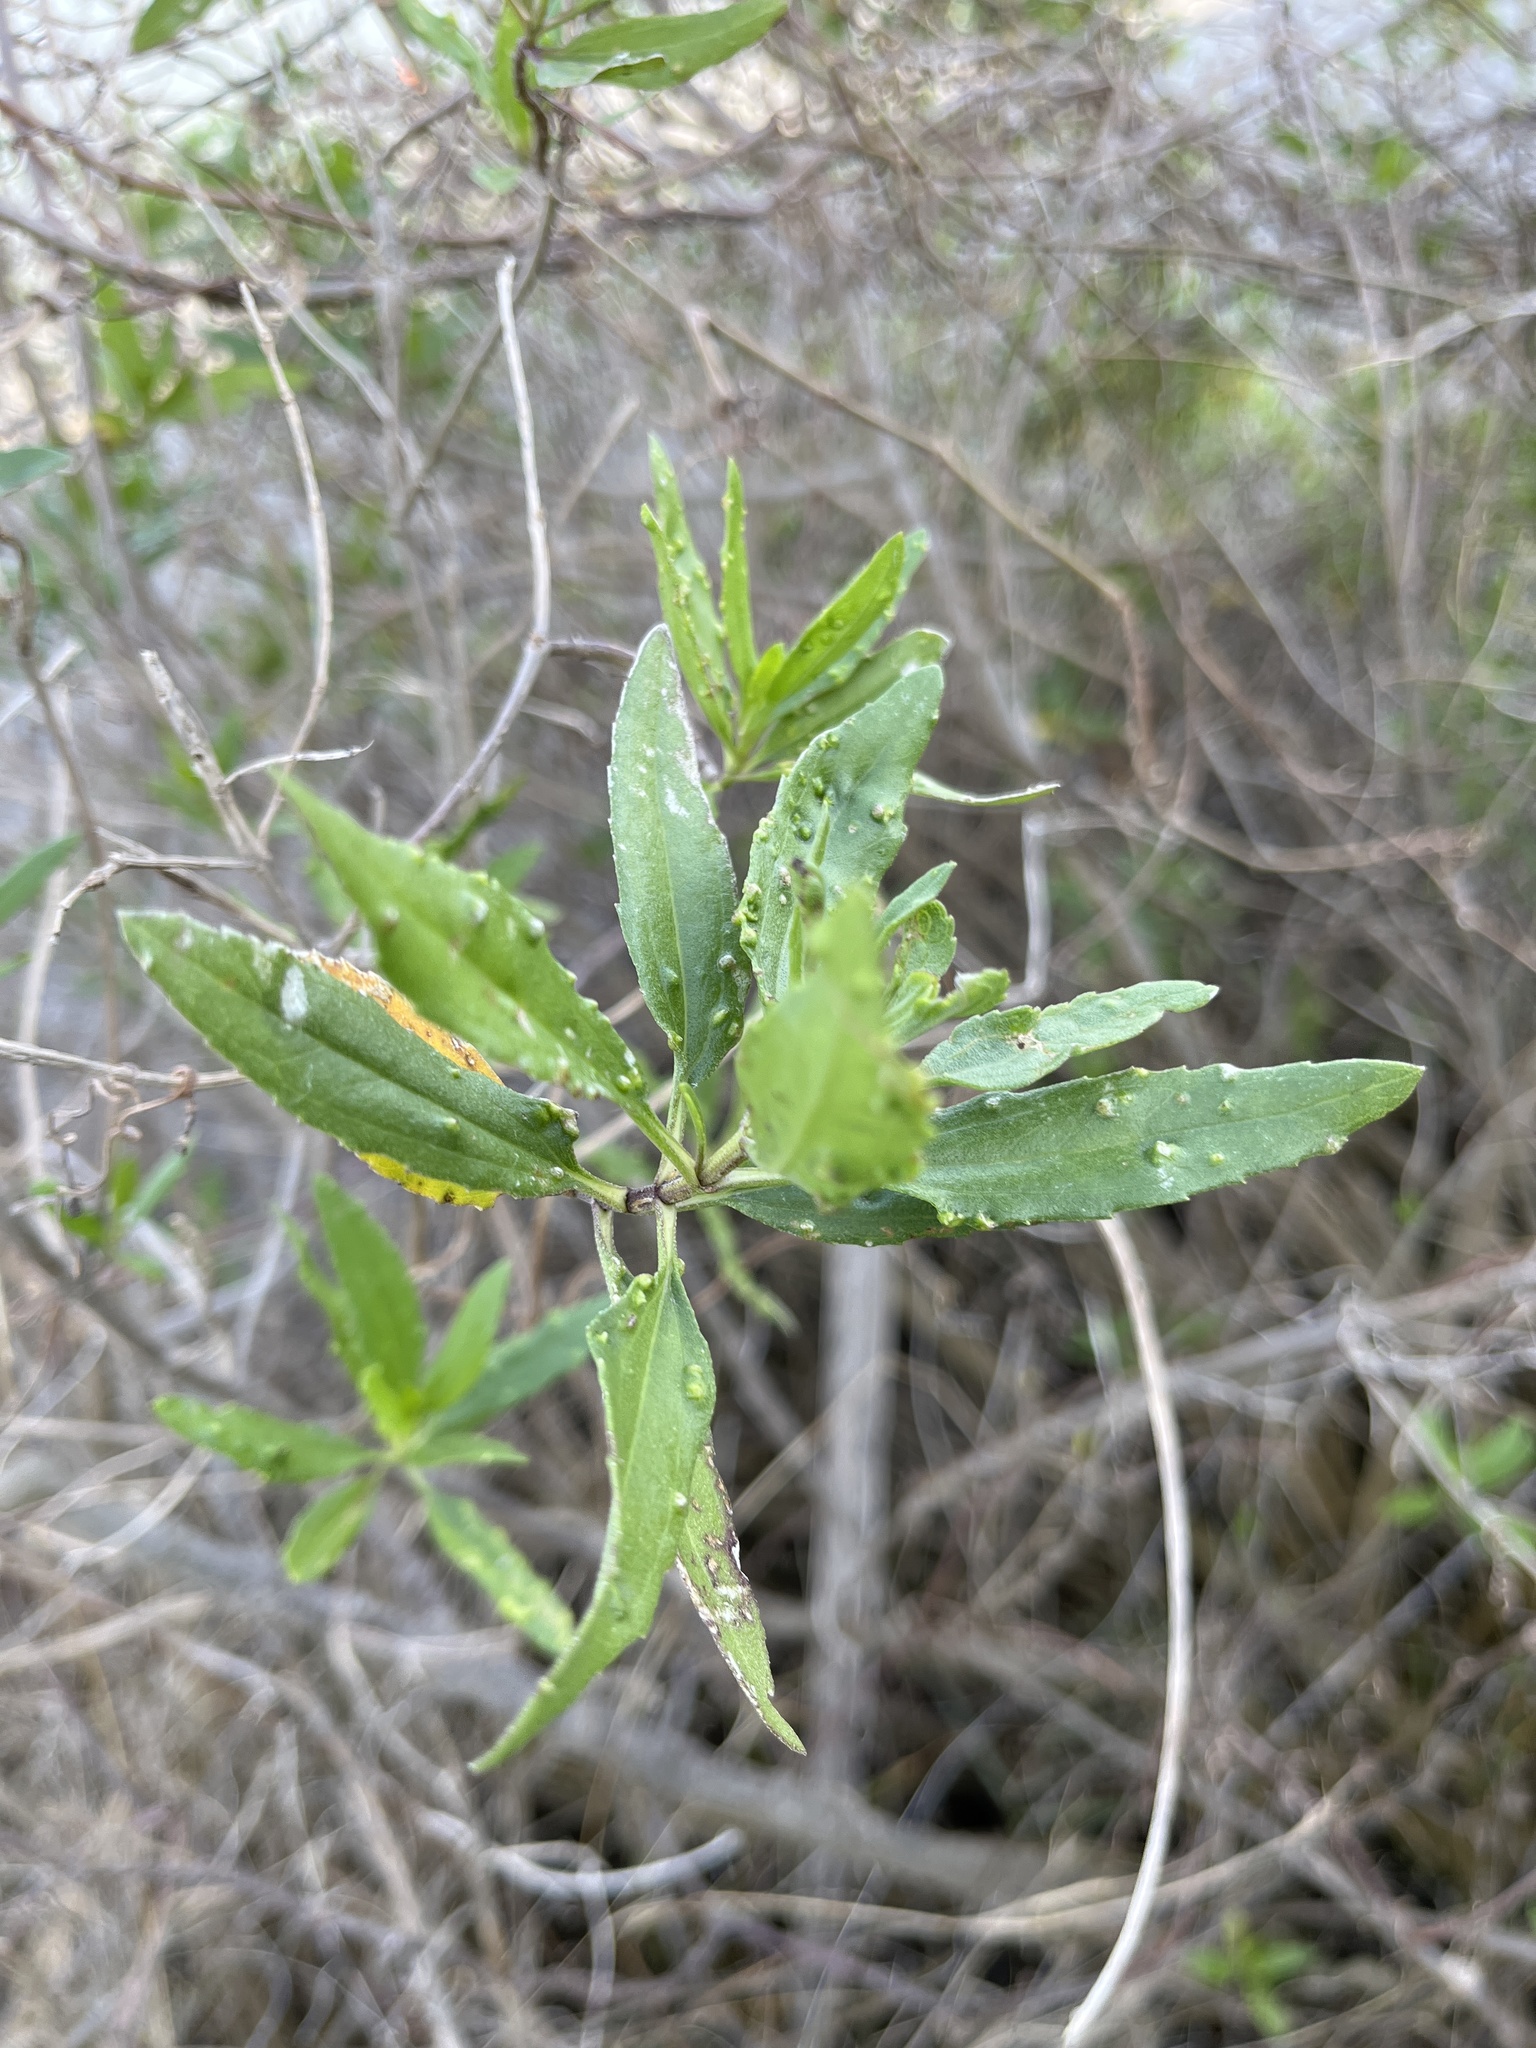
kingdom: Plantae
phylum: Tracheophyta
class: Magnoliopsida
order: Asterales
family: Asteraceae
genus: Iva
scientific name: Iva frutescens
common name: Big-leaved marsh-elder
